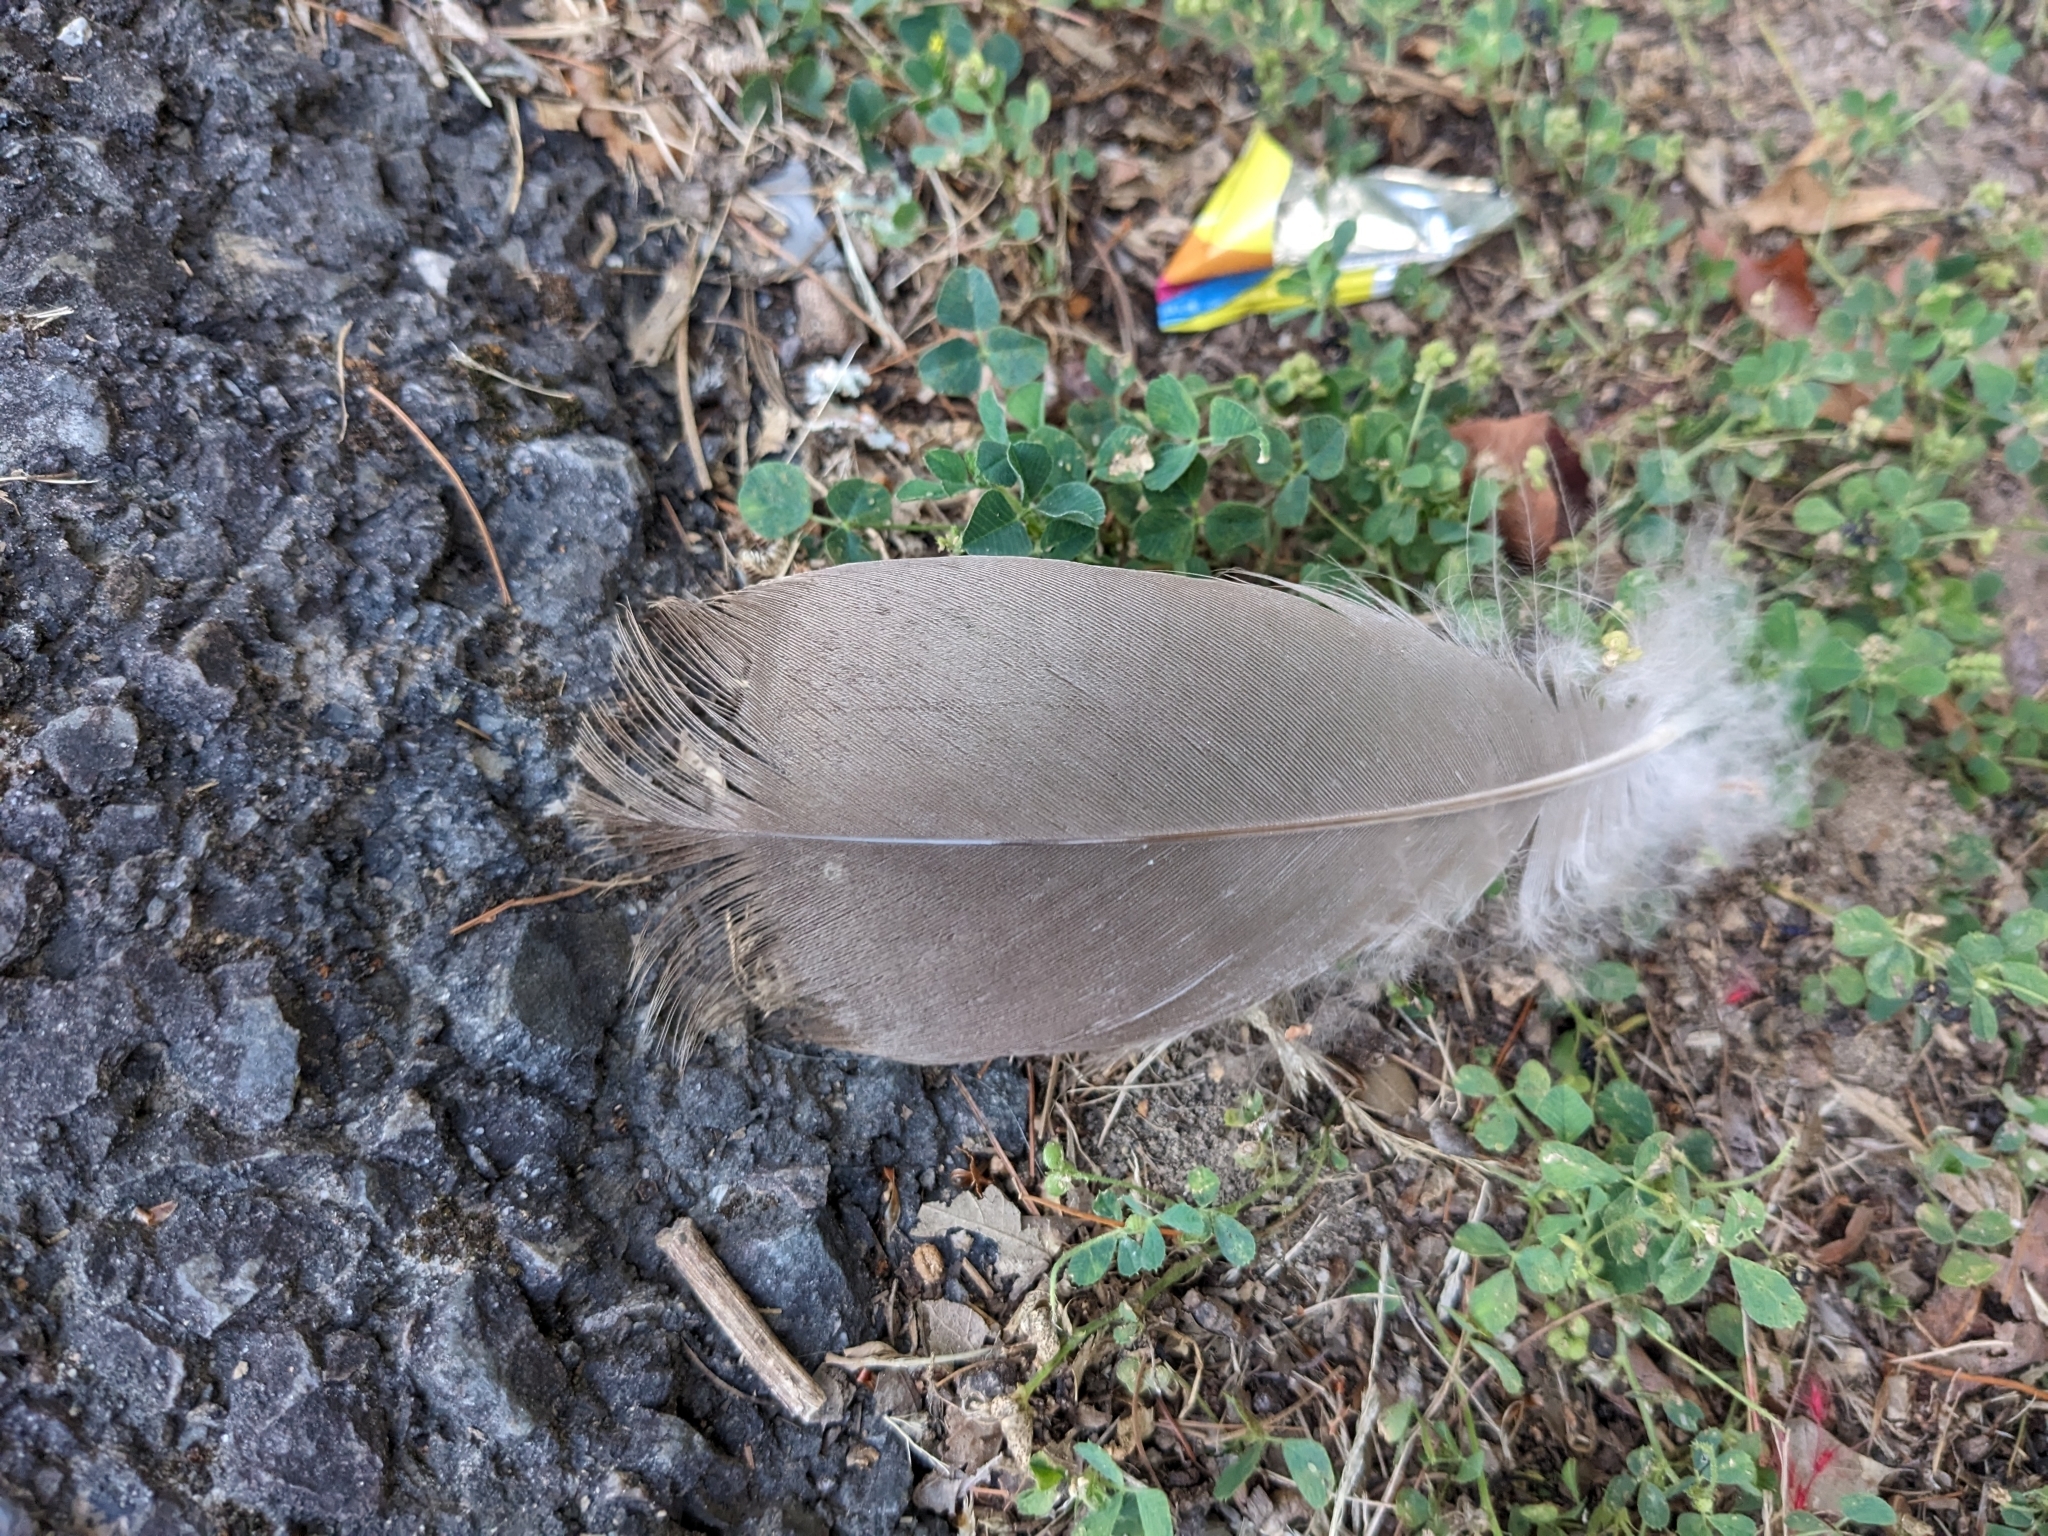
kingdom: Animalia
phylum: Chordata
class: Aves
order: Anseriformes
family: Anatidae
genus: Branta
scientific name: Branta canadensis
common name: Canada goose
